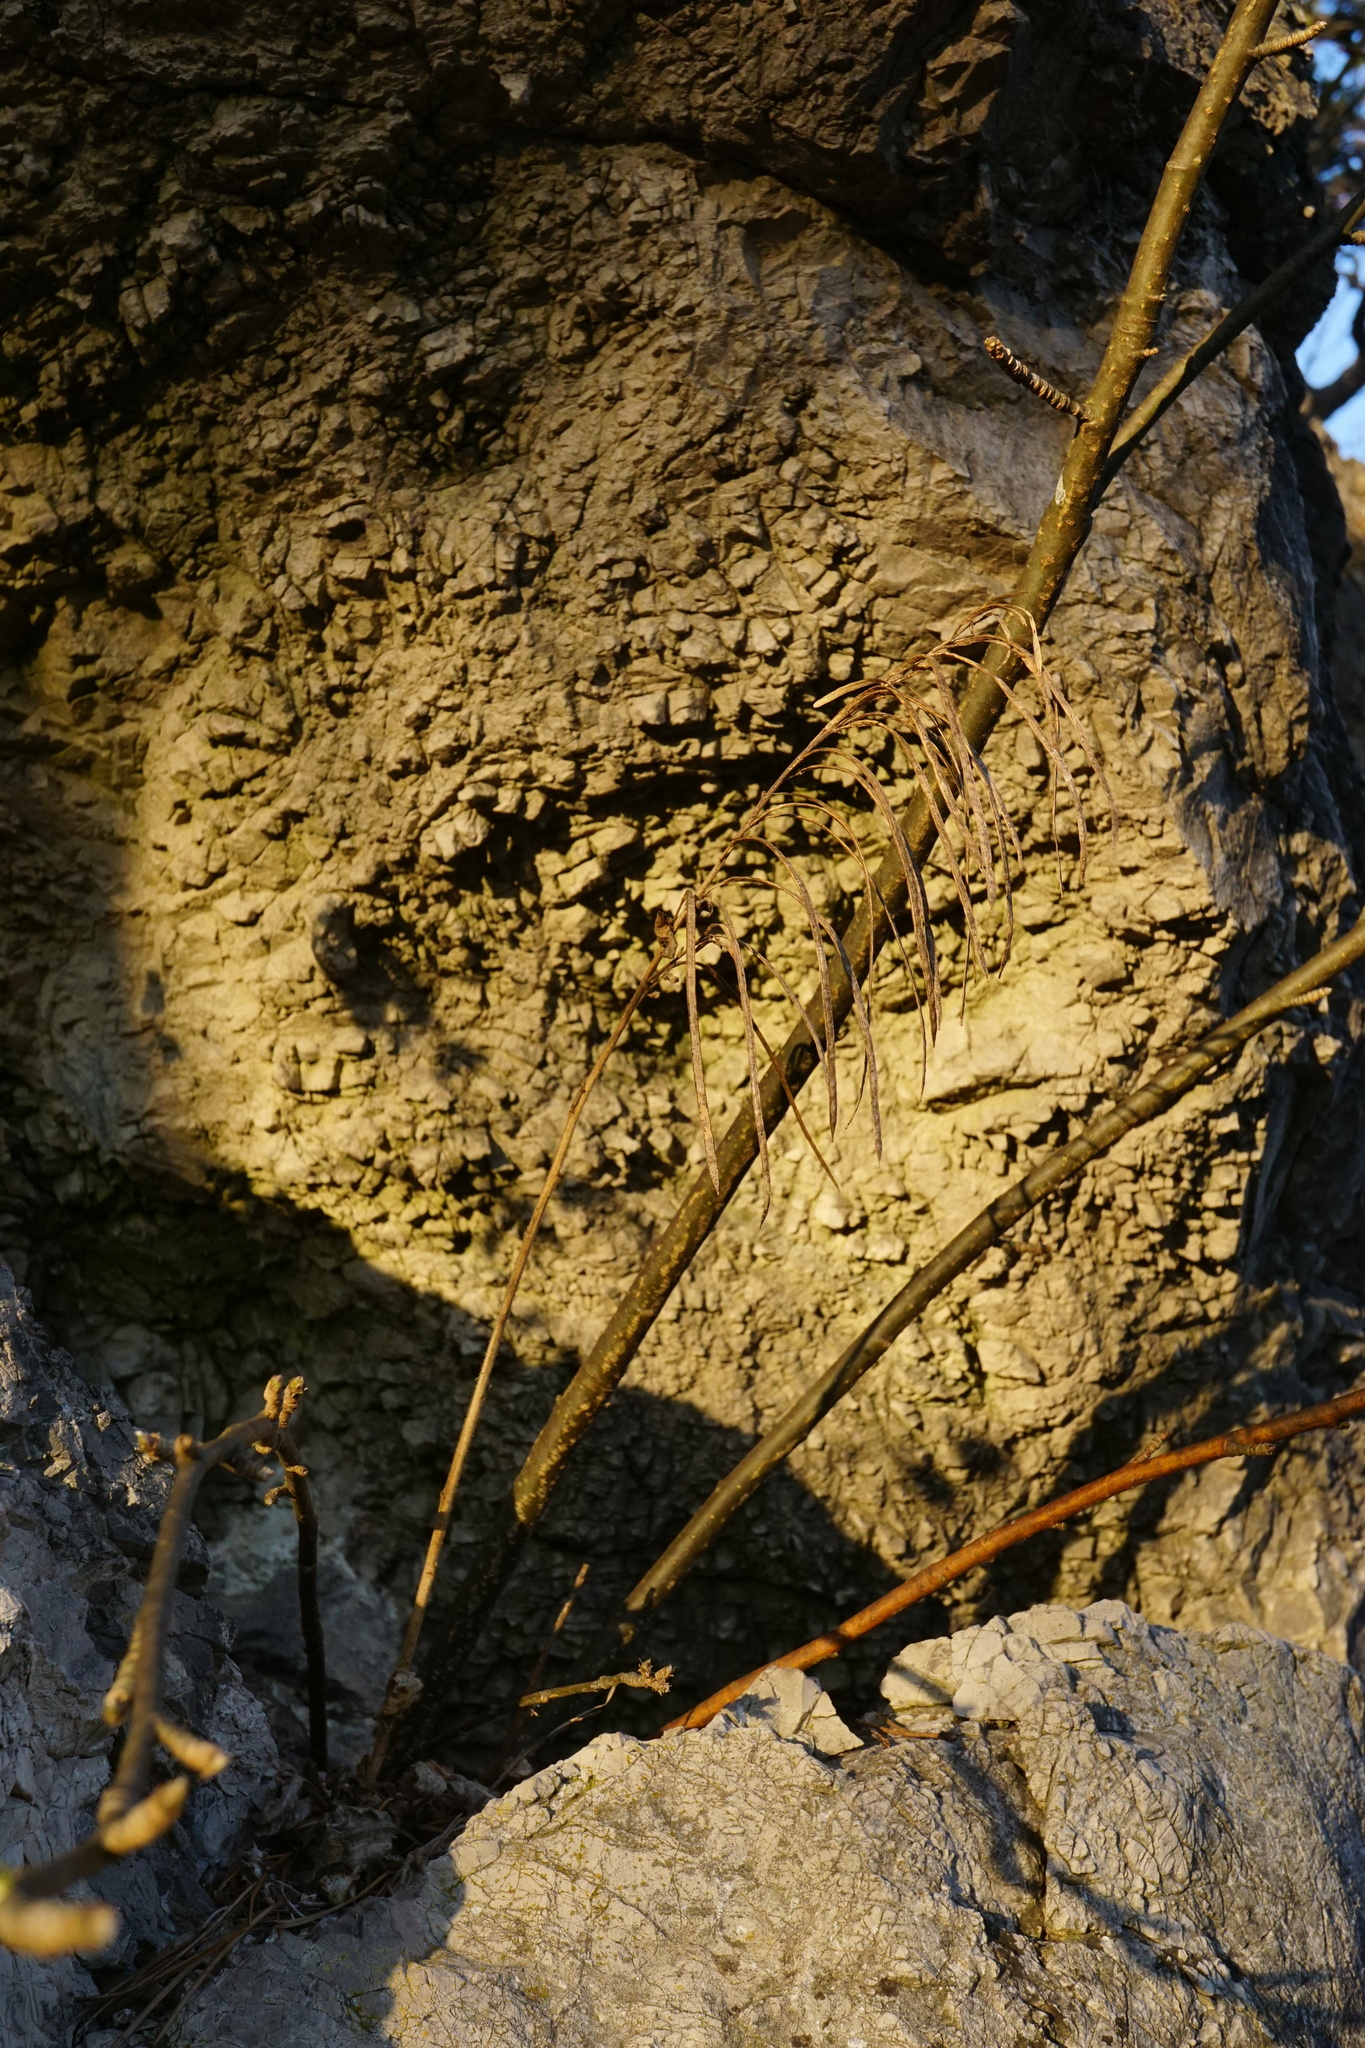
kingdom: Plantae
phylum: Tracheophyta
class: Magnoliopsida
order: Brassicales
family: Brassicaceae
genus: Pseudoturritis
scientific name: Pseudoturritis turrita
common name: Tower cress
